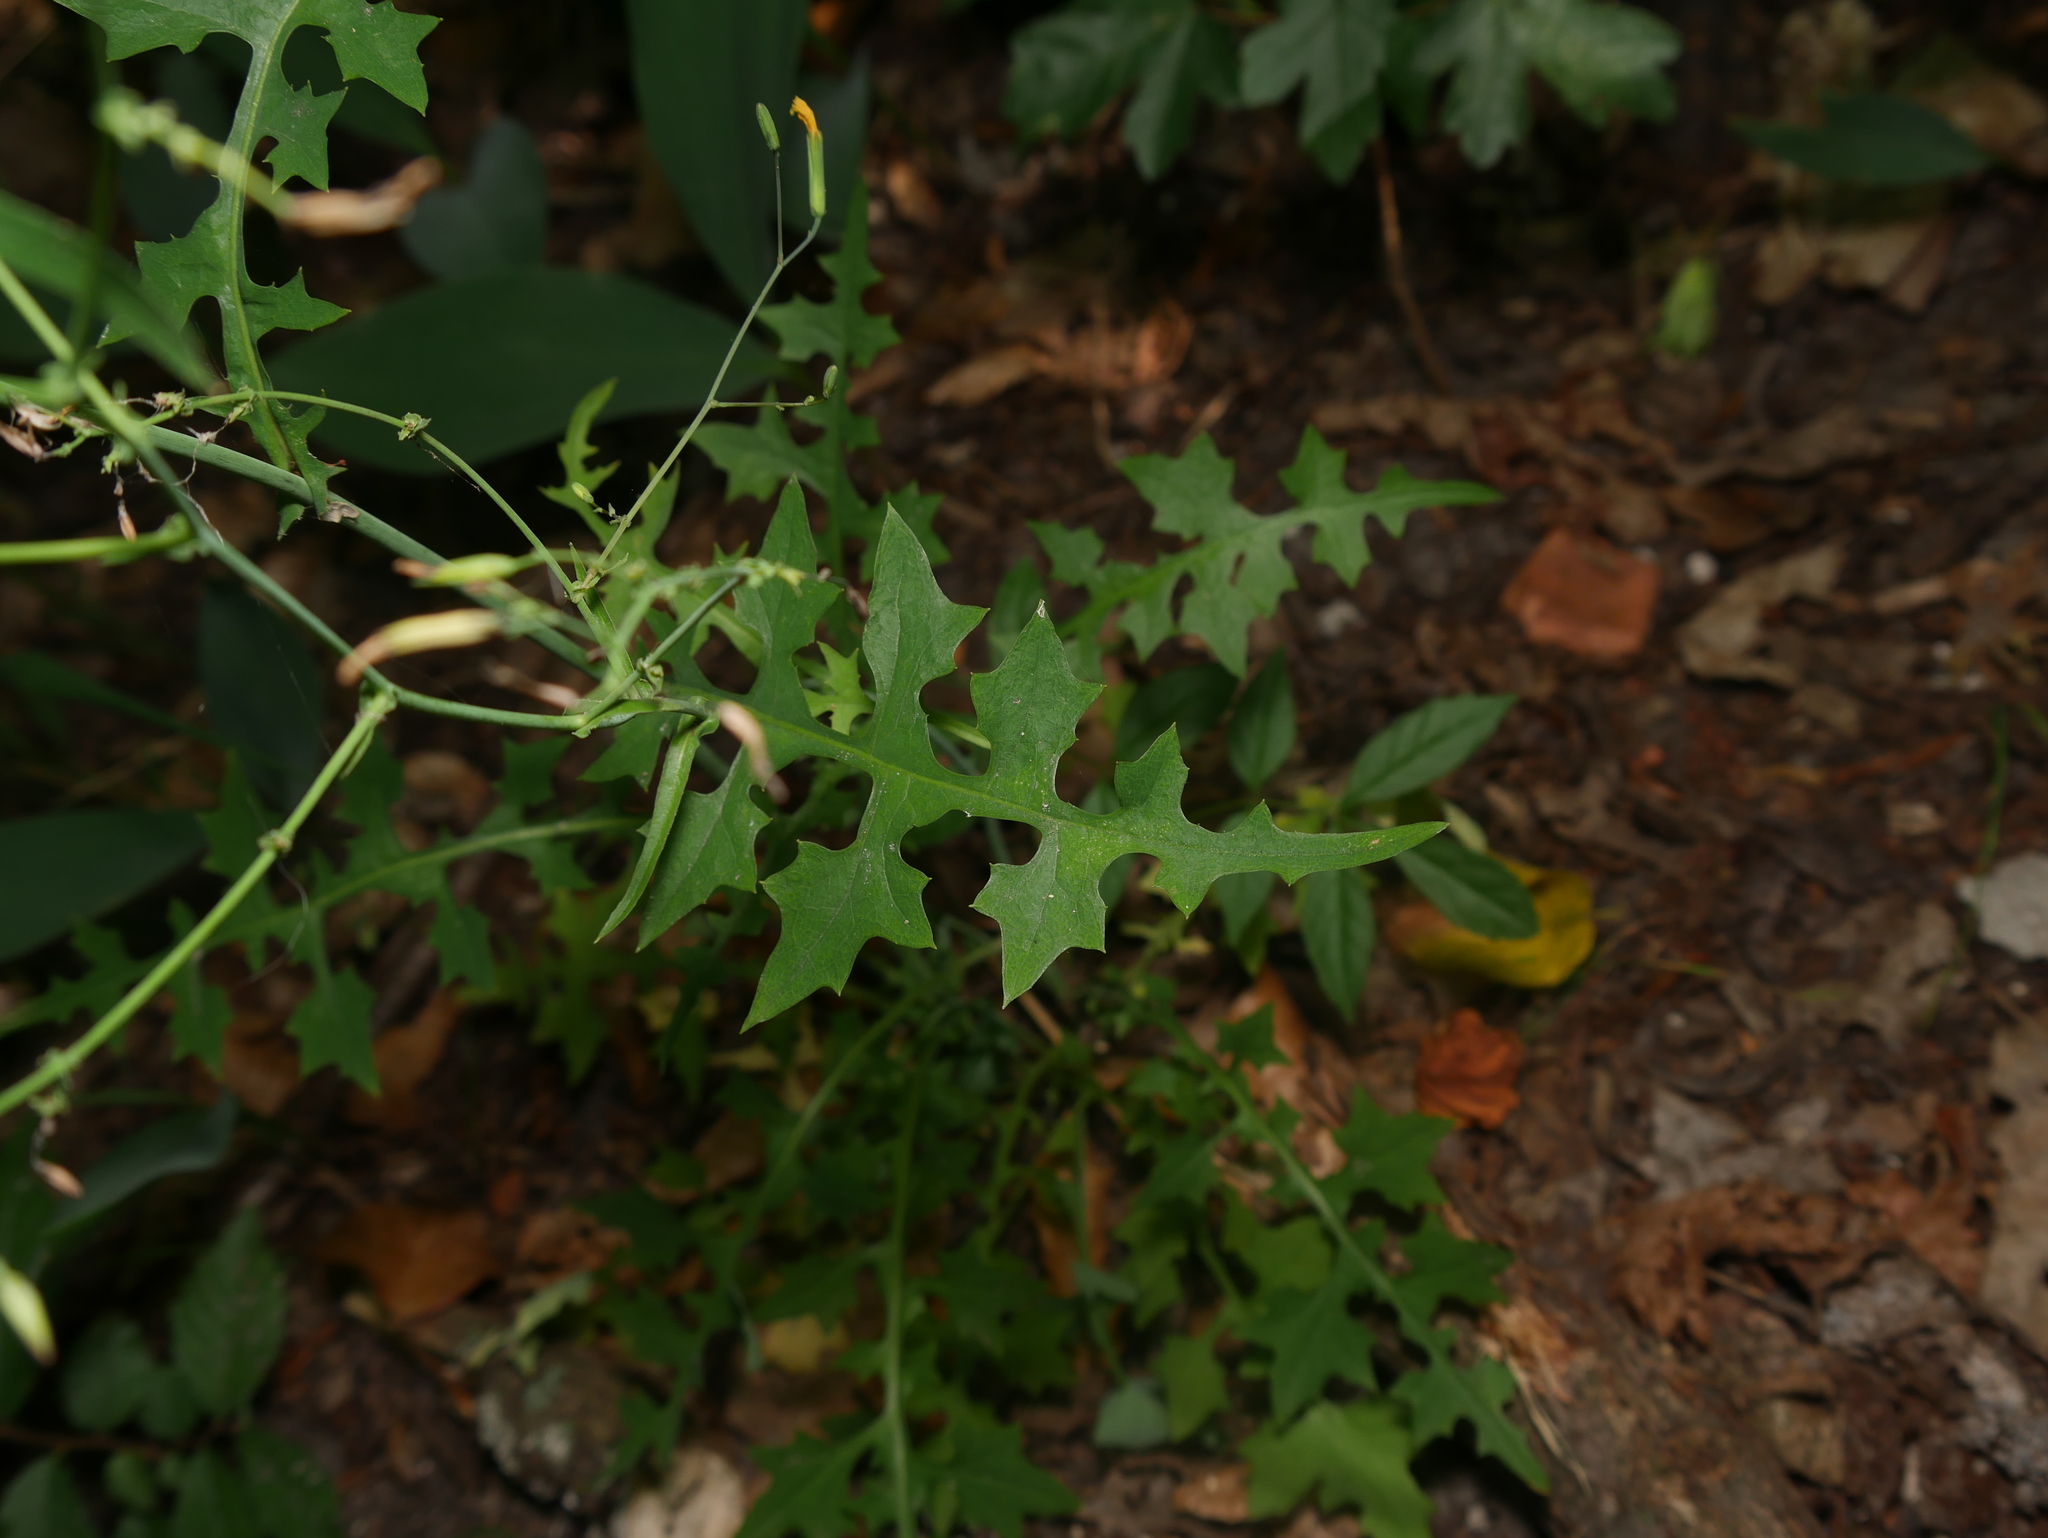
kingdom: Plantae
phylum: Tracheophyta
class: Magnoliopsida
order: Asterales
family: Asteraceae
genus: Mycelis
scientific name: Mycelis muralis
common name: Wall lettuce
